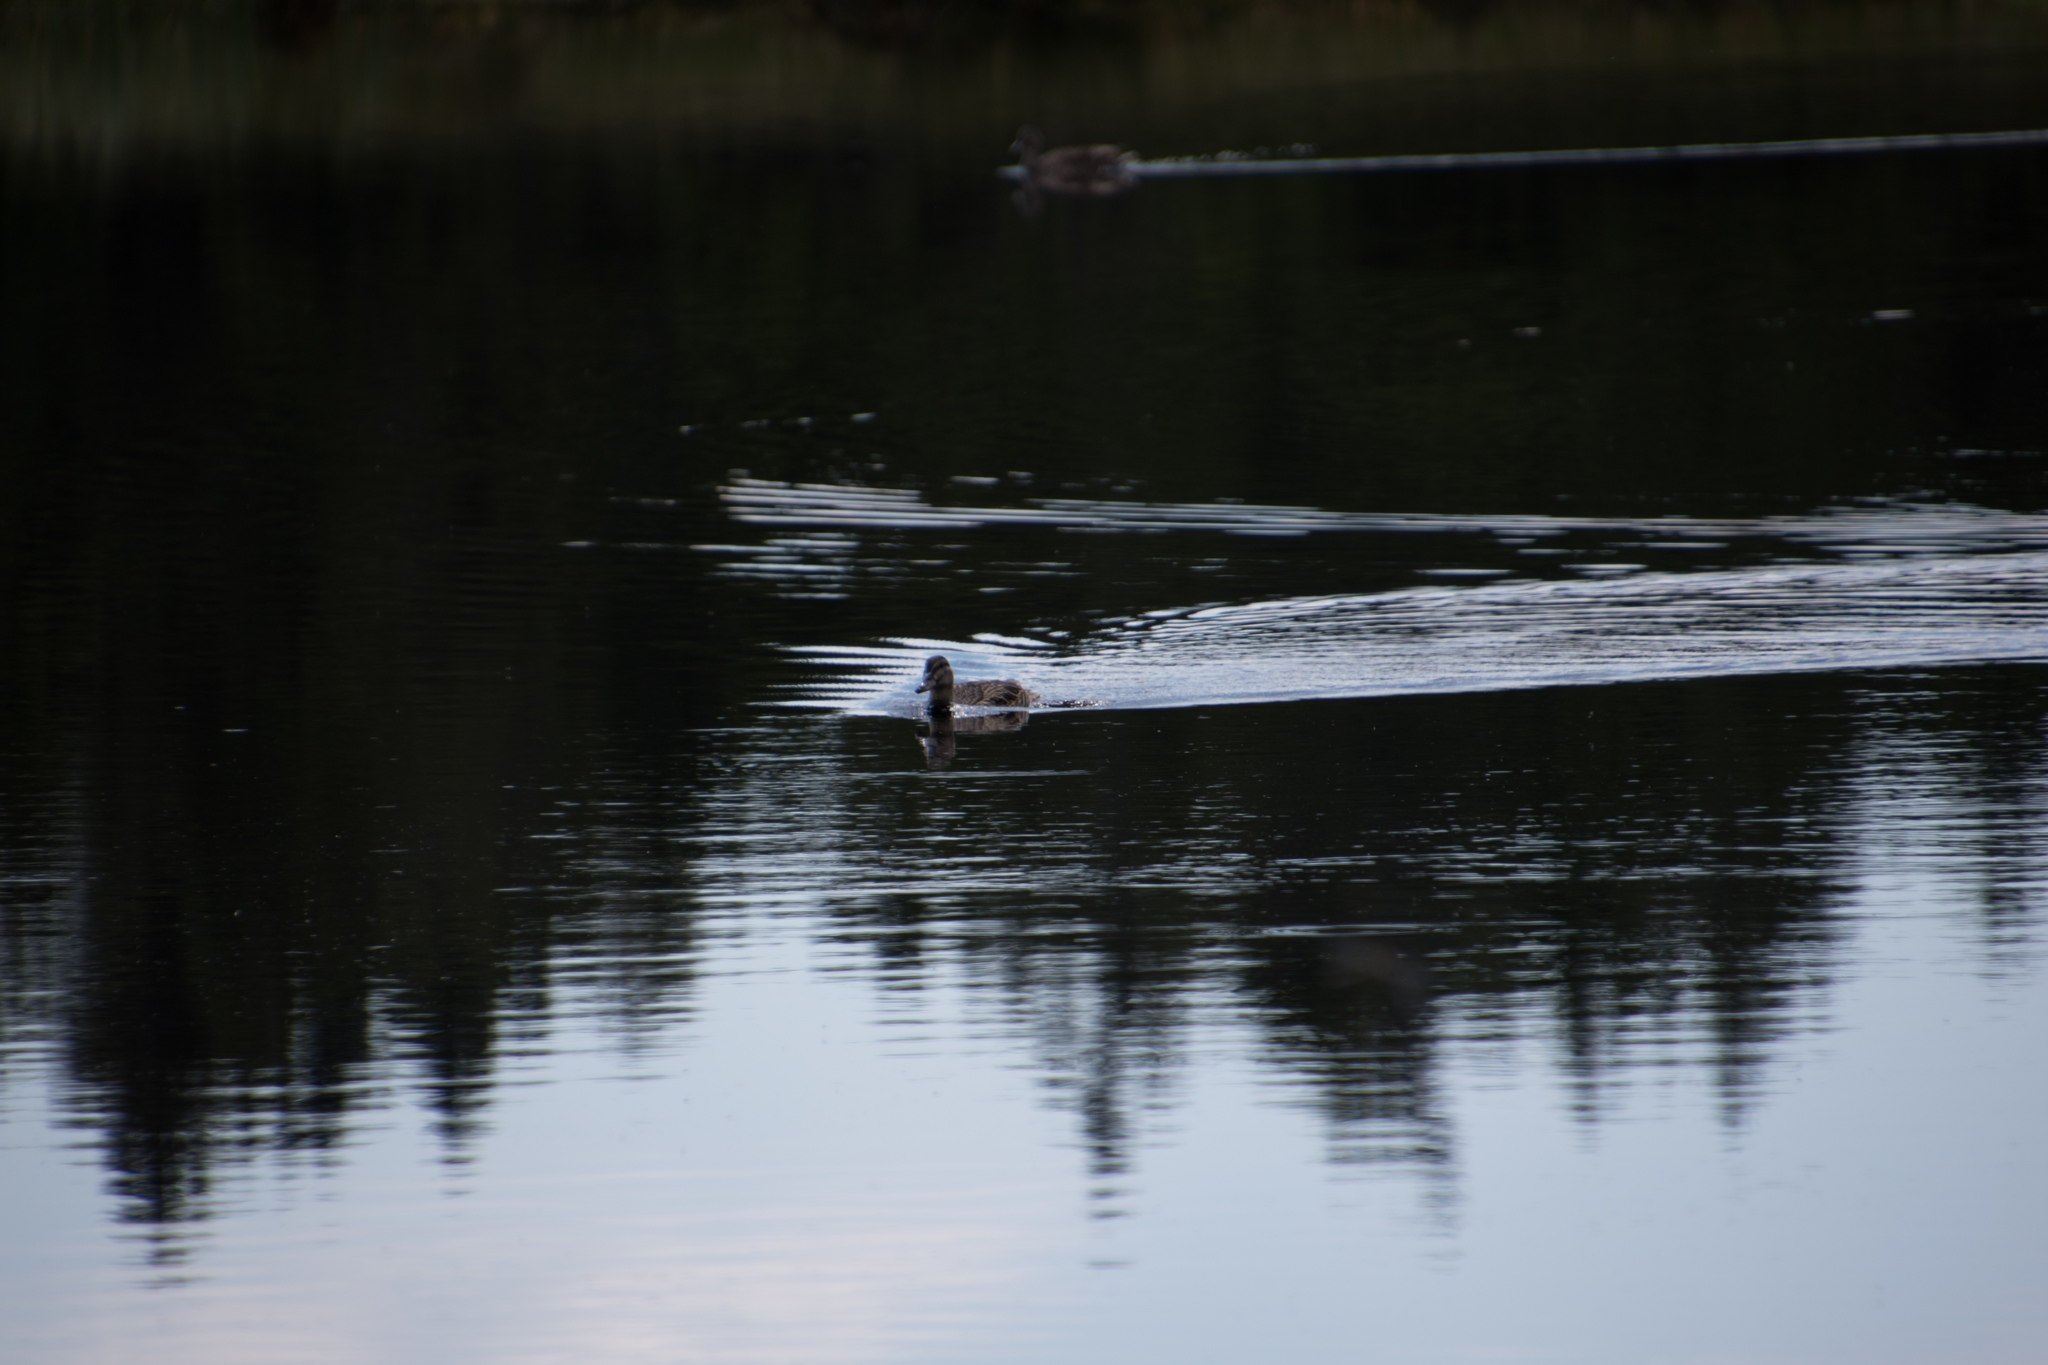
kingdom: Animalia
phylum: Chordata
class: Aves
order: Anseriformes
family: Anatidae
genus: Anas
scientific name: Anas platyrhynchos
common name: Mallard
